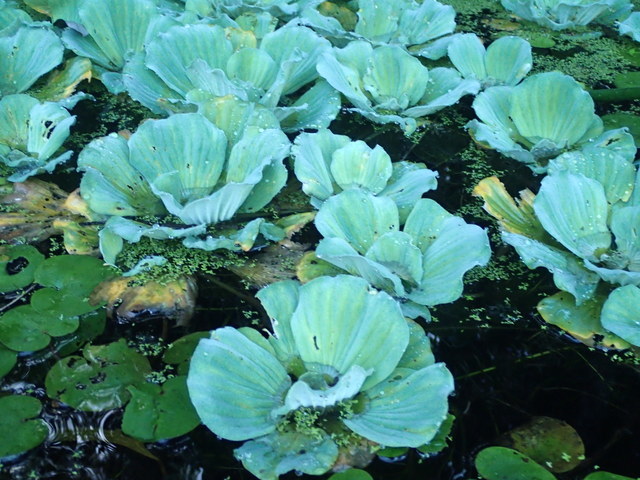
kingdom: Plantae
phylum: Tracheophyta
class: Liliopsida
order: Alismatales
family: Araceae
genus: Pistia
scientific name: Pistia stratiotes
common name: Water lettuce
